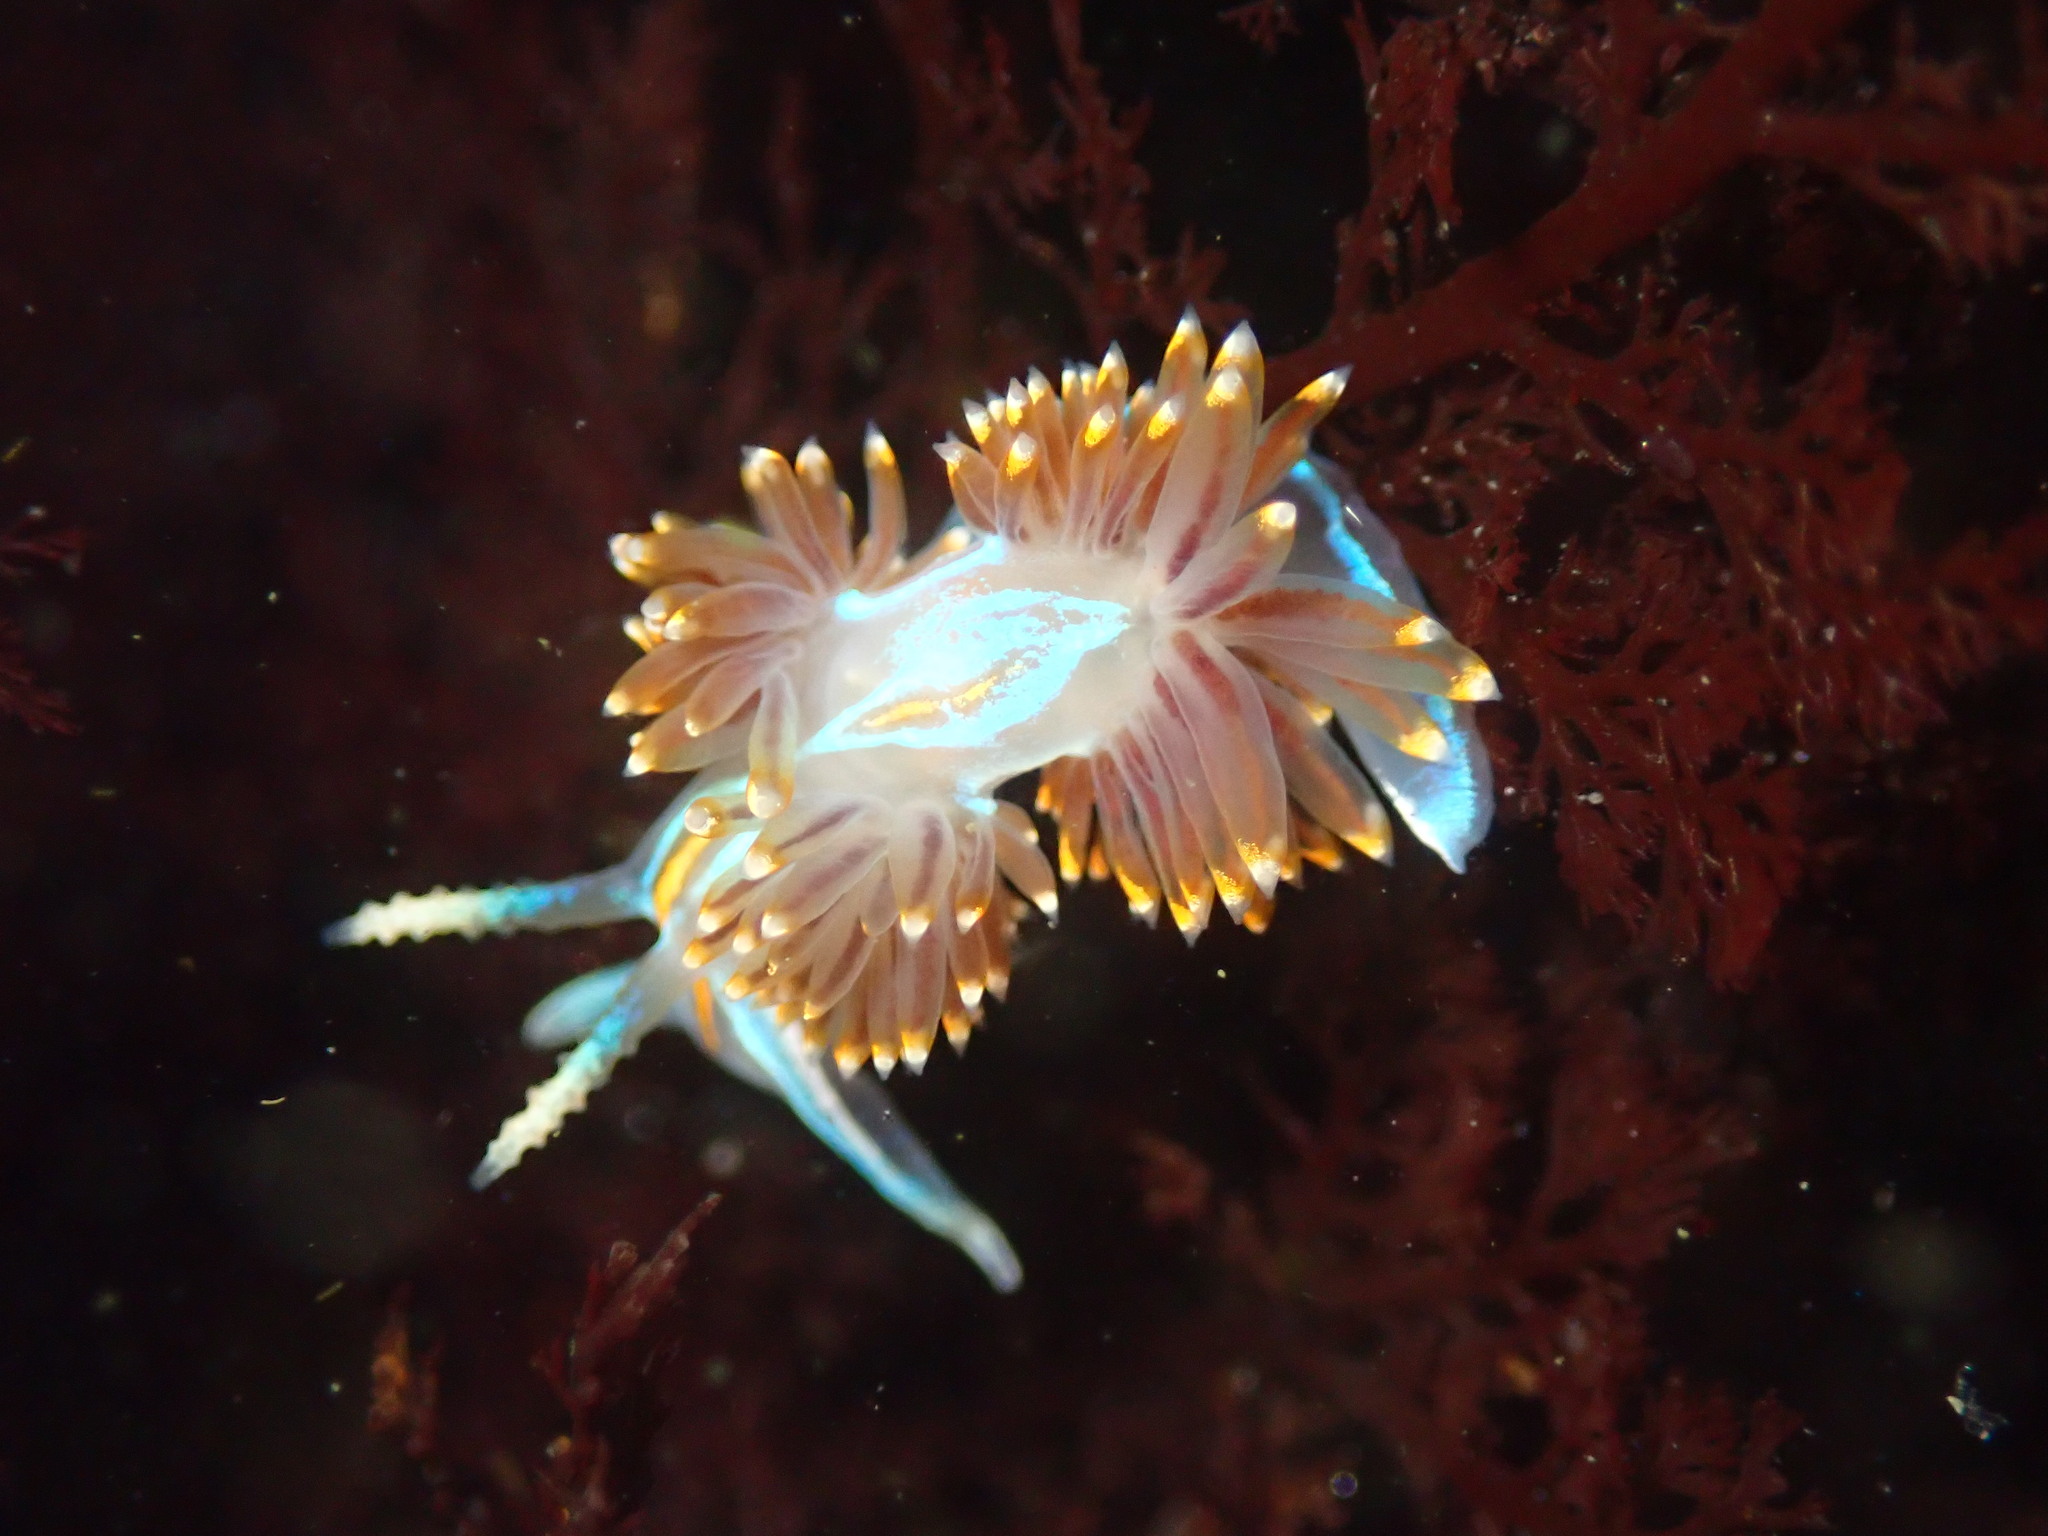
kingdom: Animalia
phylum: Mollusca
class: Gastropoda
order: Nudibranchia
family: Myrrhinidae
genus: Hermissenda
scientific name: Hermissenda opalescens
